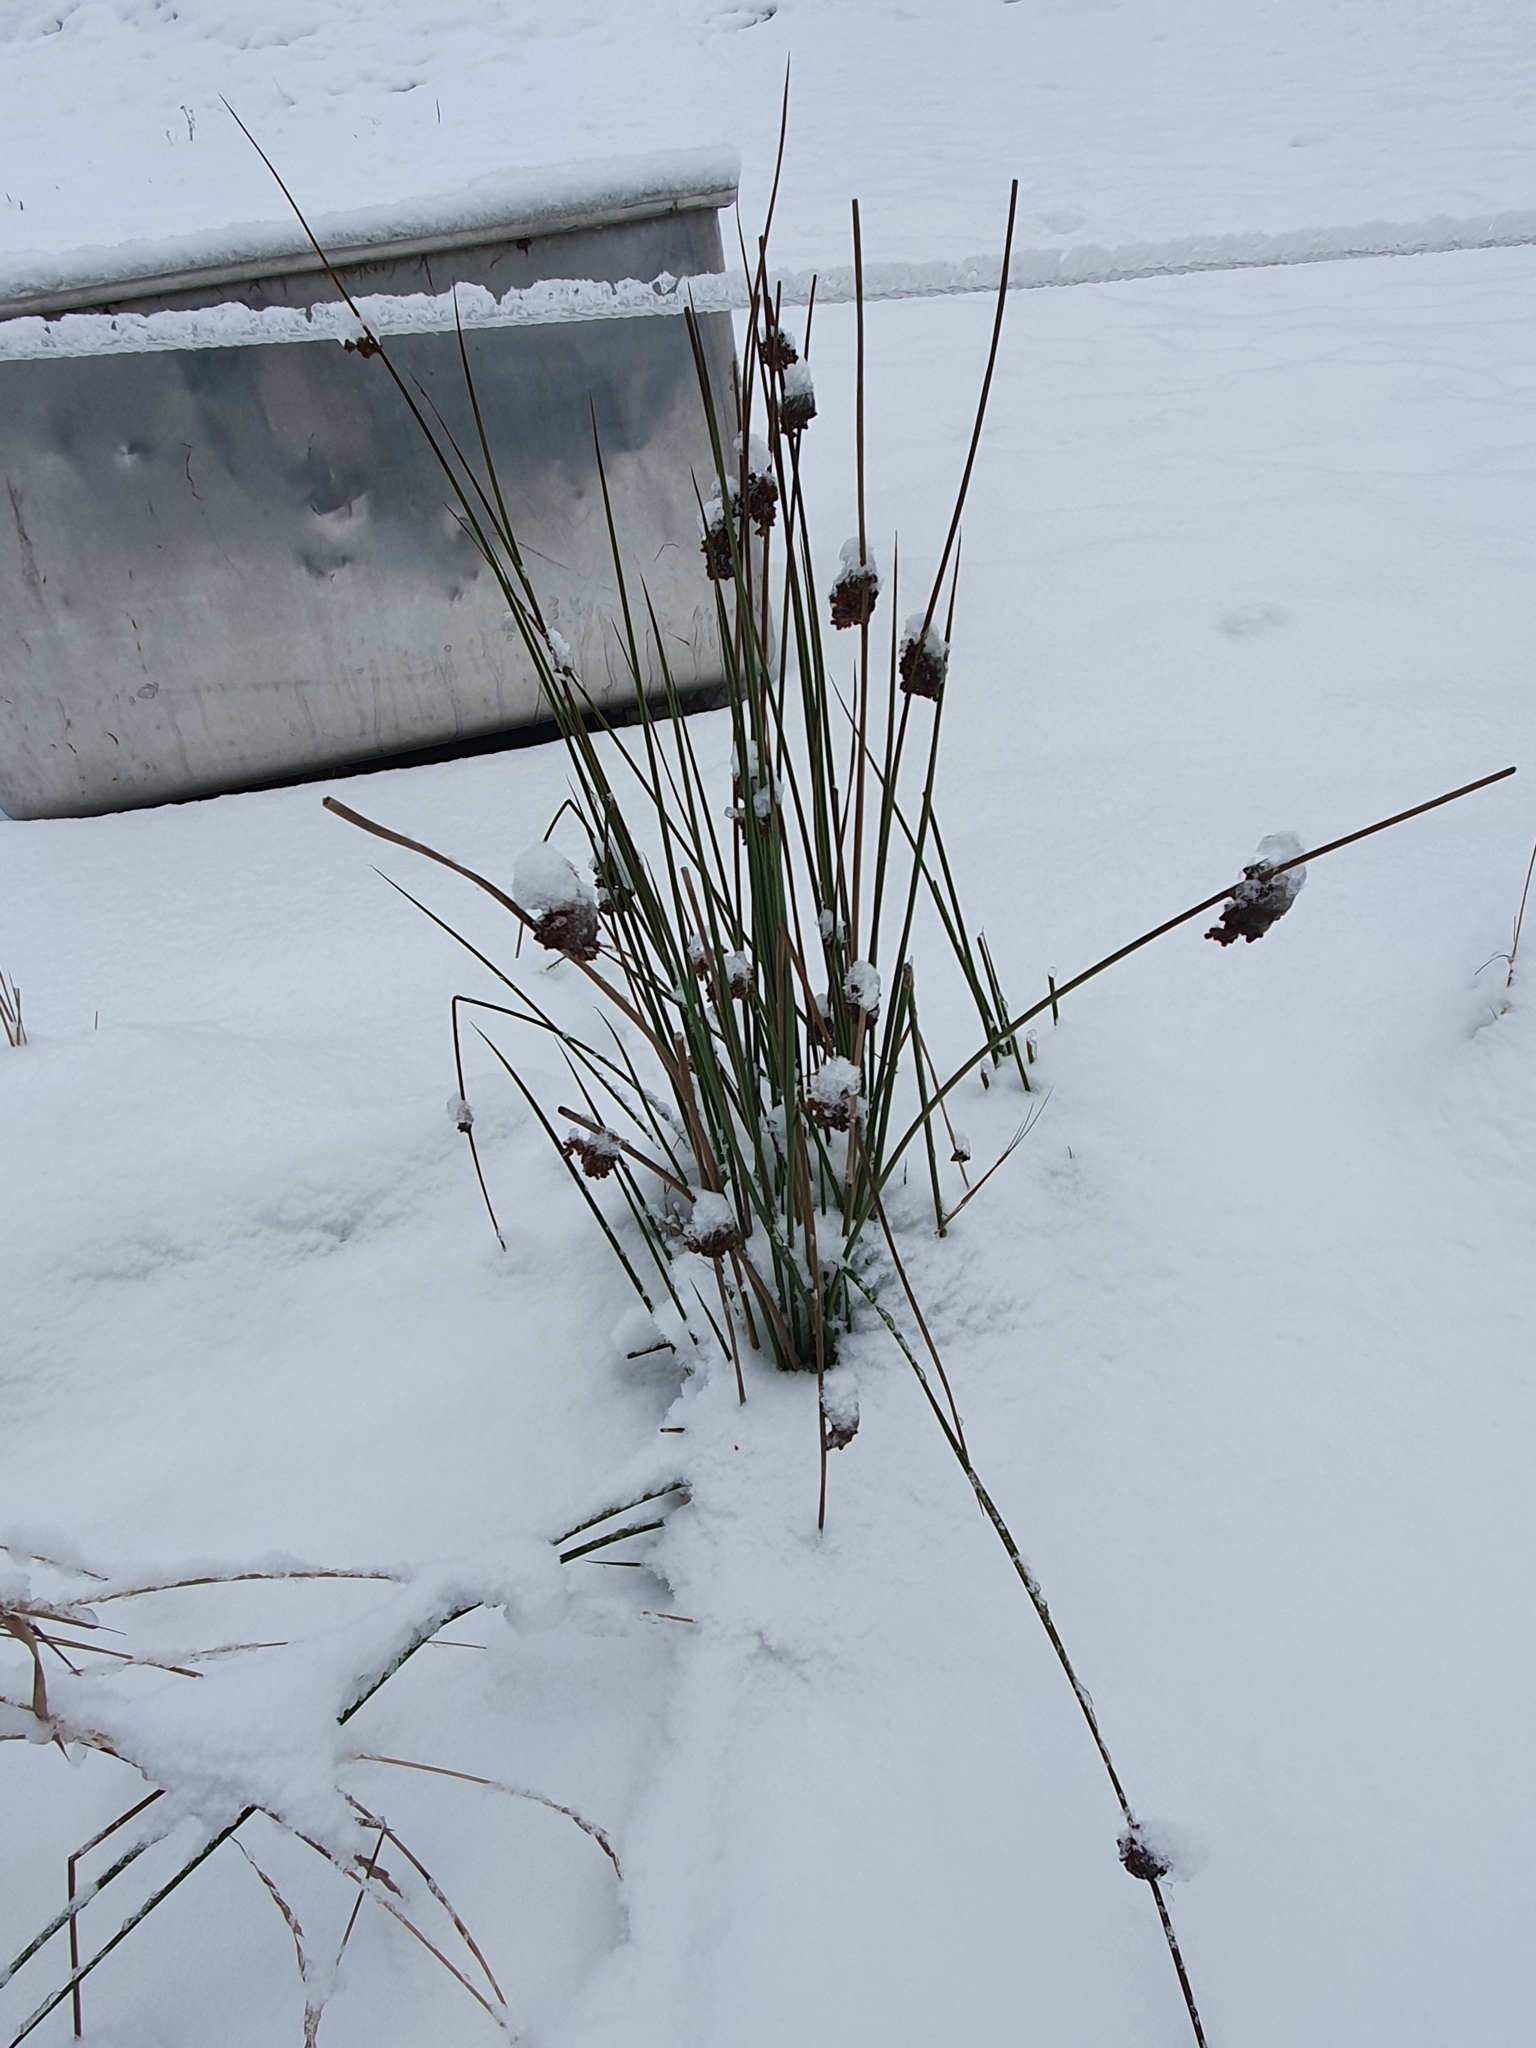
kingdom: Plantae
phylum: Tracheophyta
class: Liliopsida
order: Poales
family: Juncaceae
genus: Juncus
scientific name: Juncus effusus
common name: Soft rush
